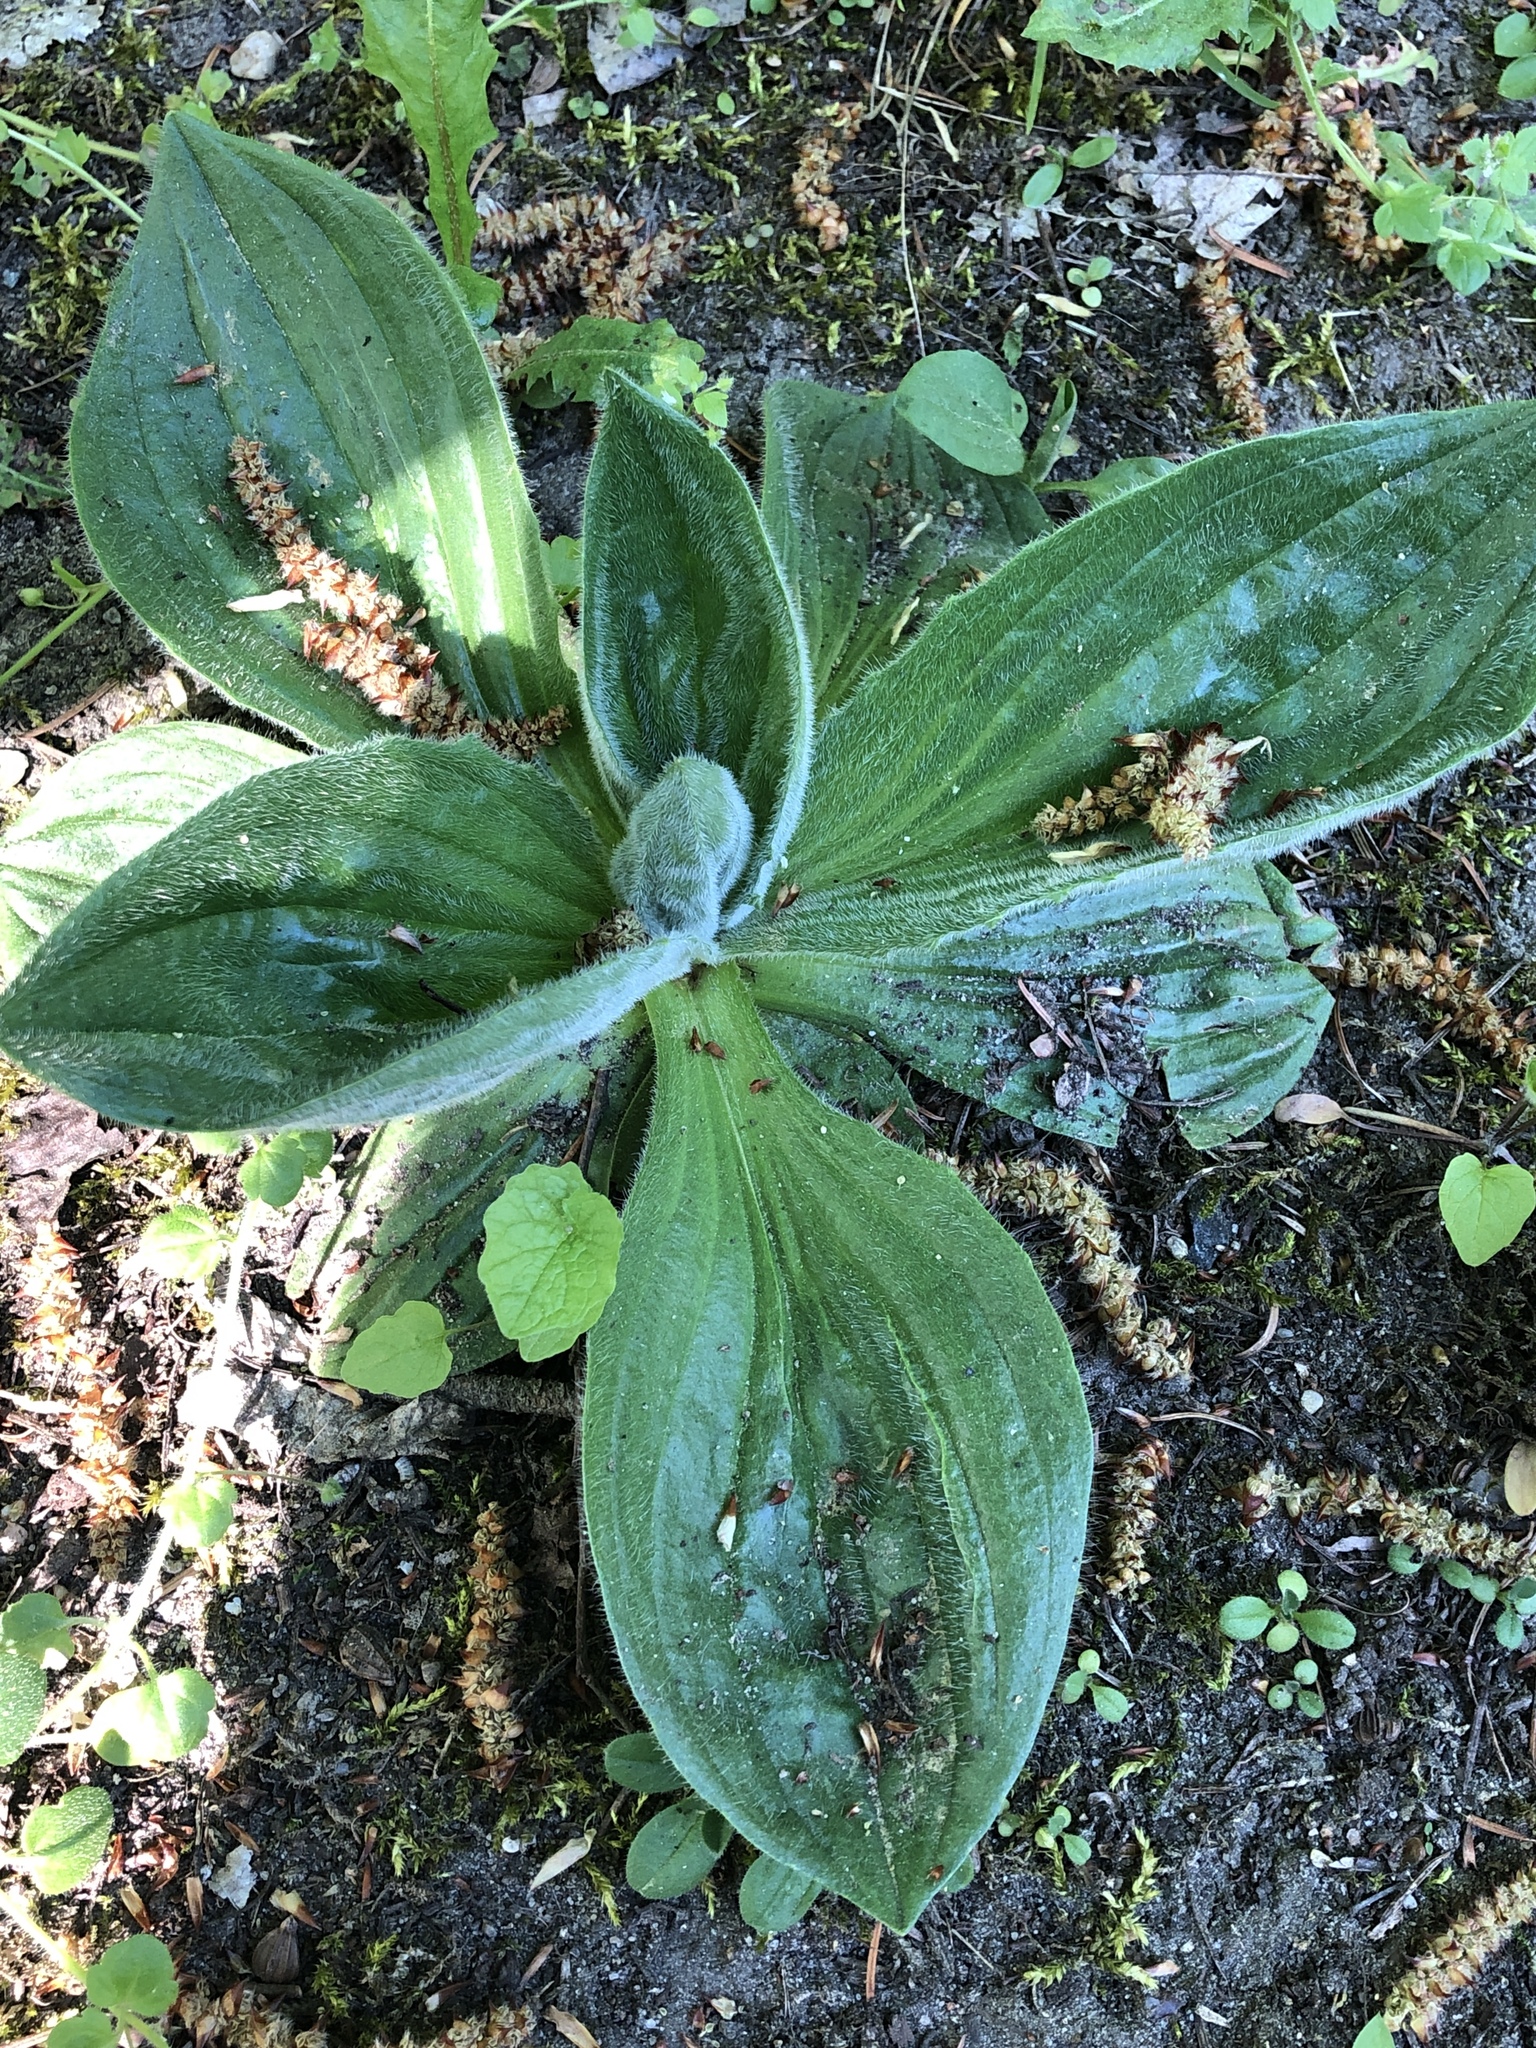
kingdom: Plantae
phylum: Tracheophyta
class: Magnoliopsida
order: Lamiales
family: Plantaginaceae
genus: Plantago
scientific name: Plantago media
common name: Hoary plantain
